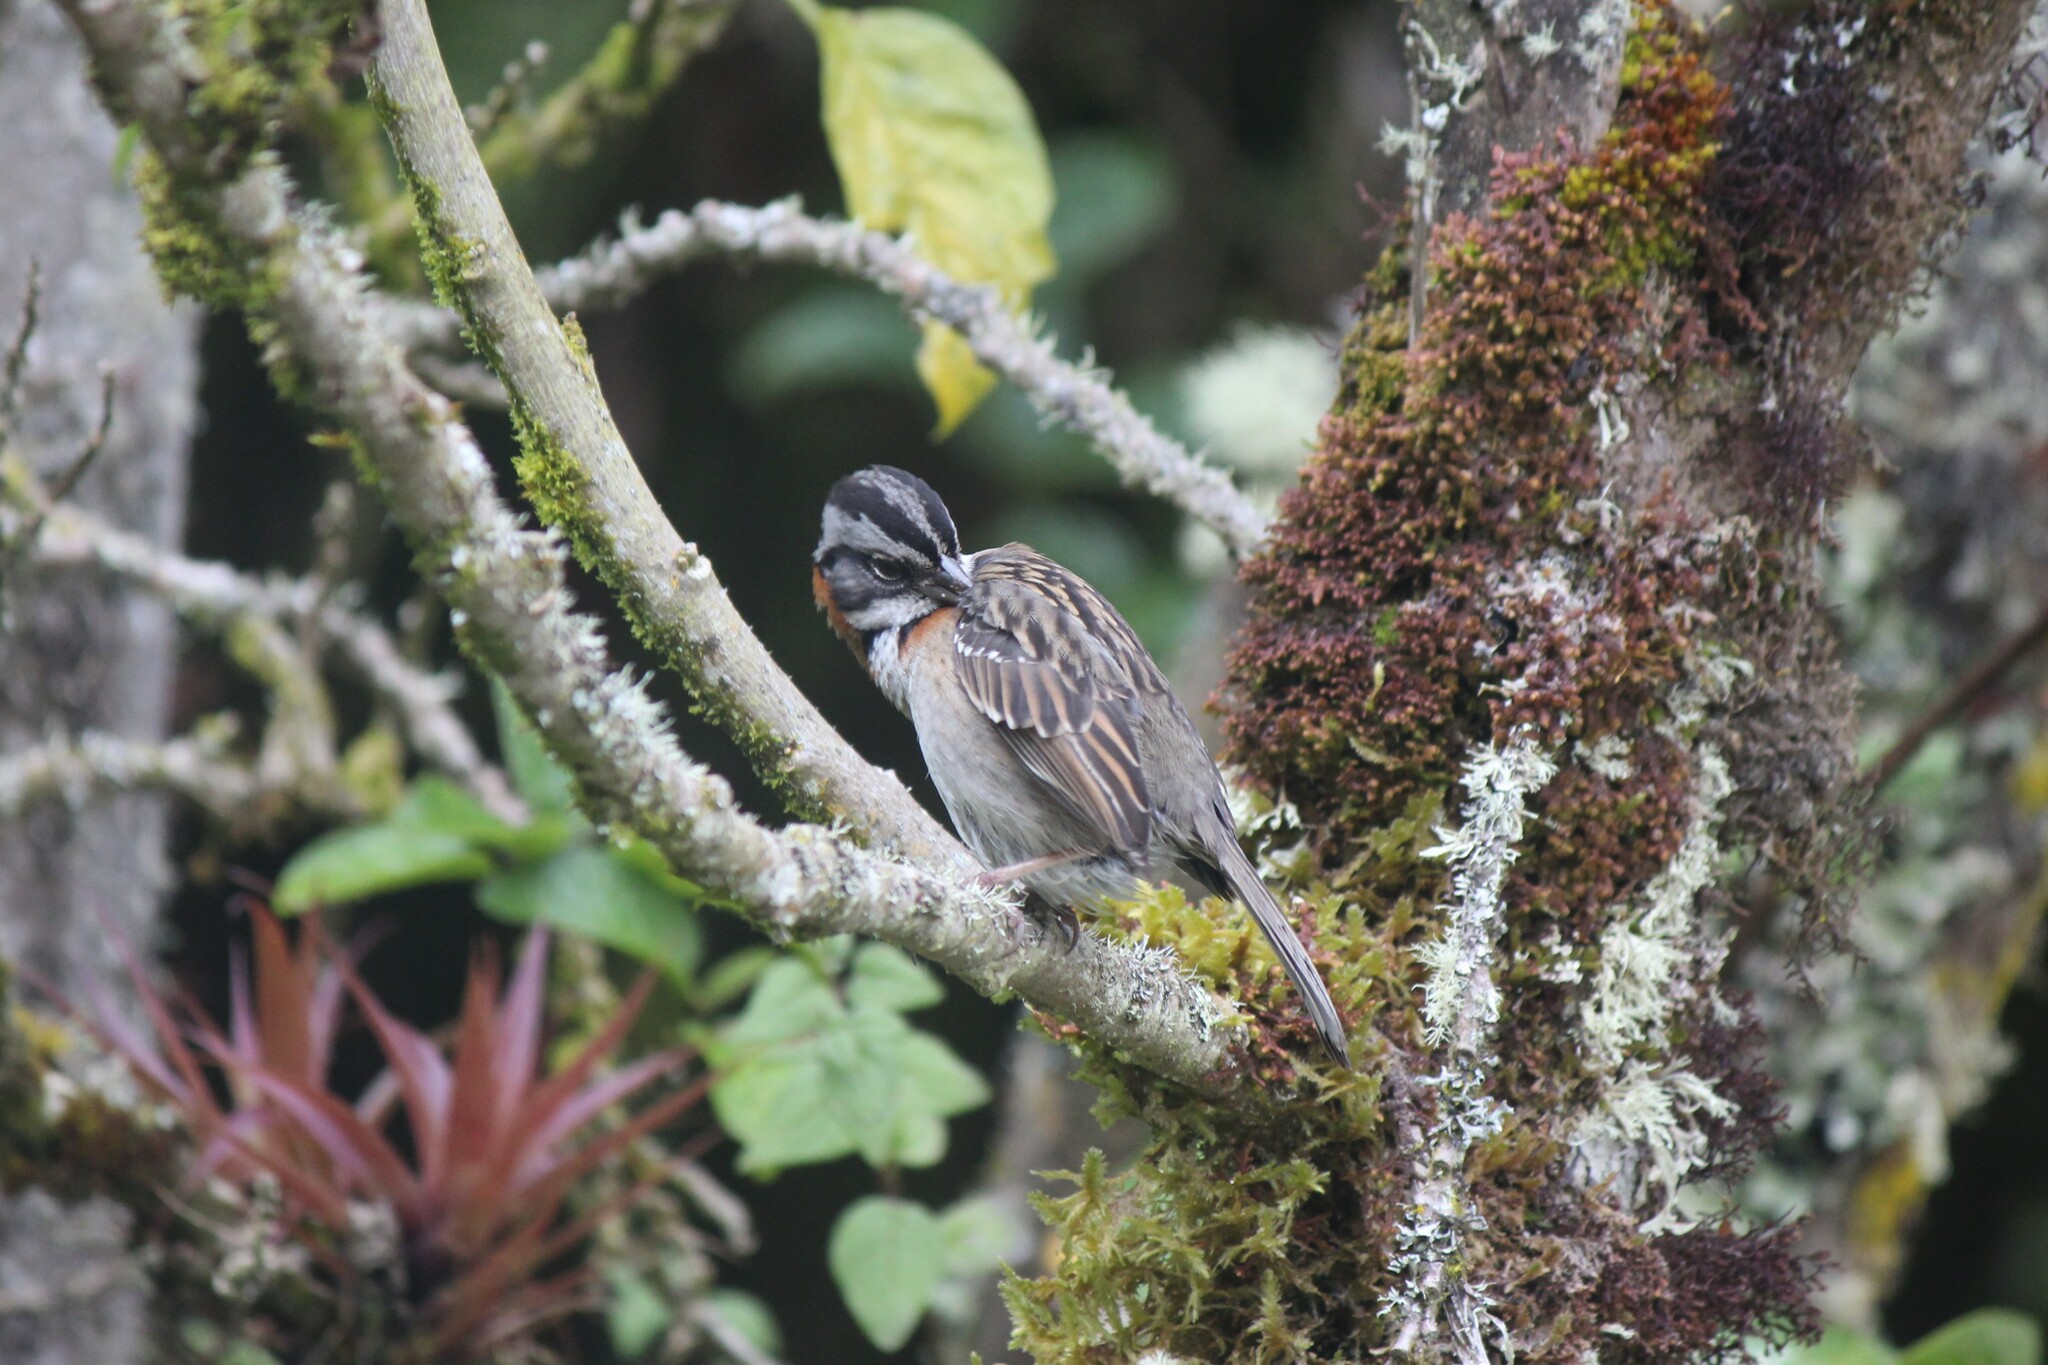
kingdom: Animalia
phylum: Chordata
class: Aves
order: Passeriformes
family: Passerellidae
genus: Zonotrichia
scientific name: Zonotrichia capensis
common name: Rufous-collared sparrow
